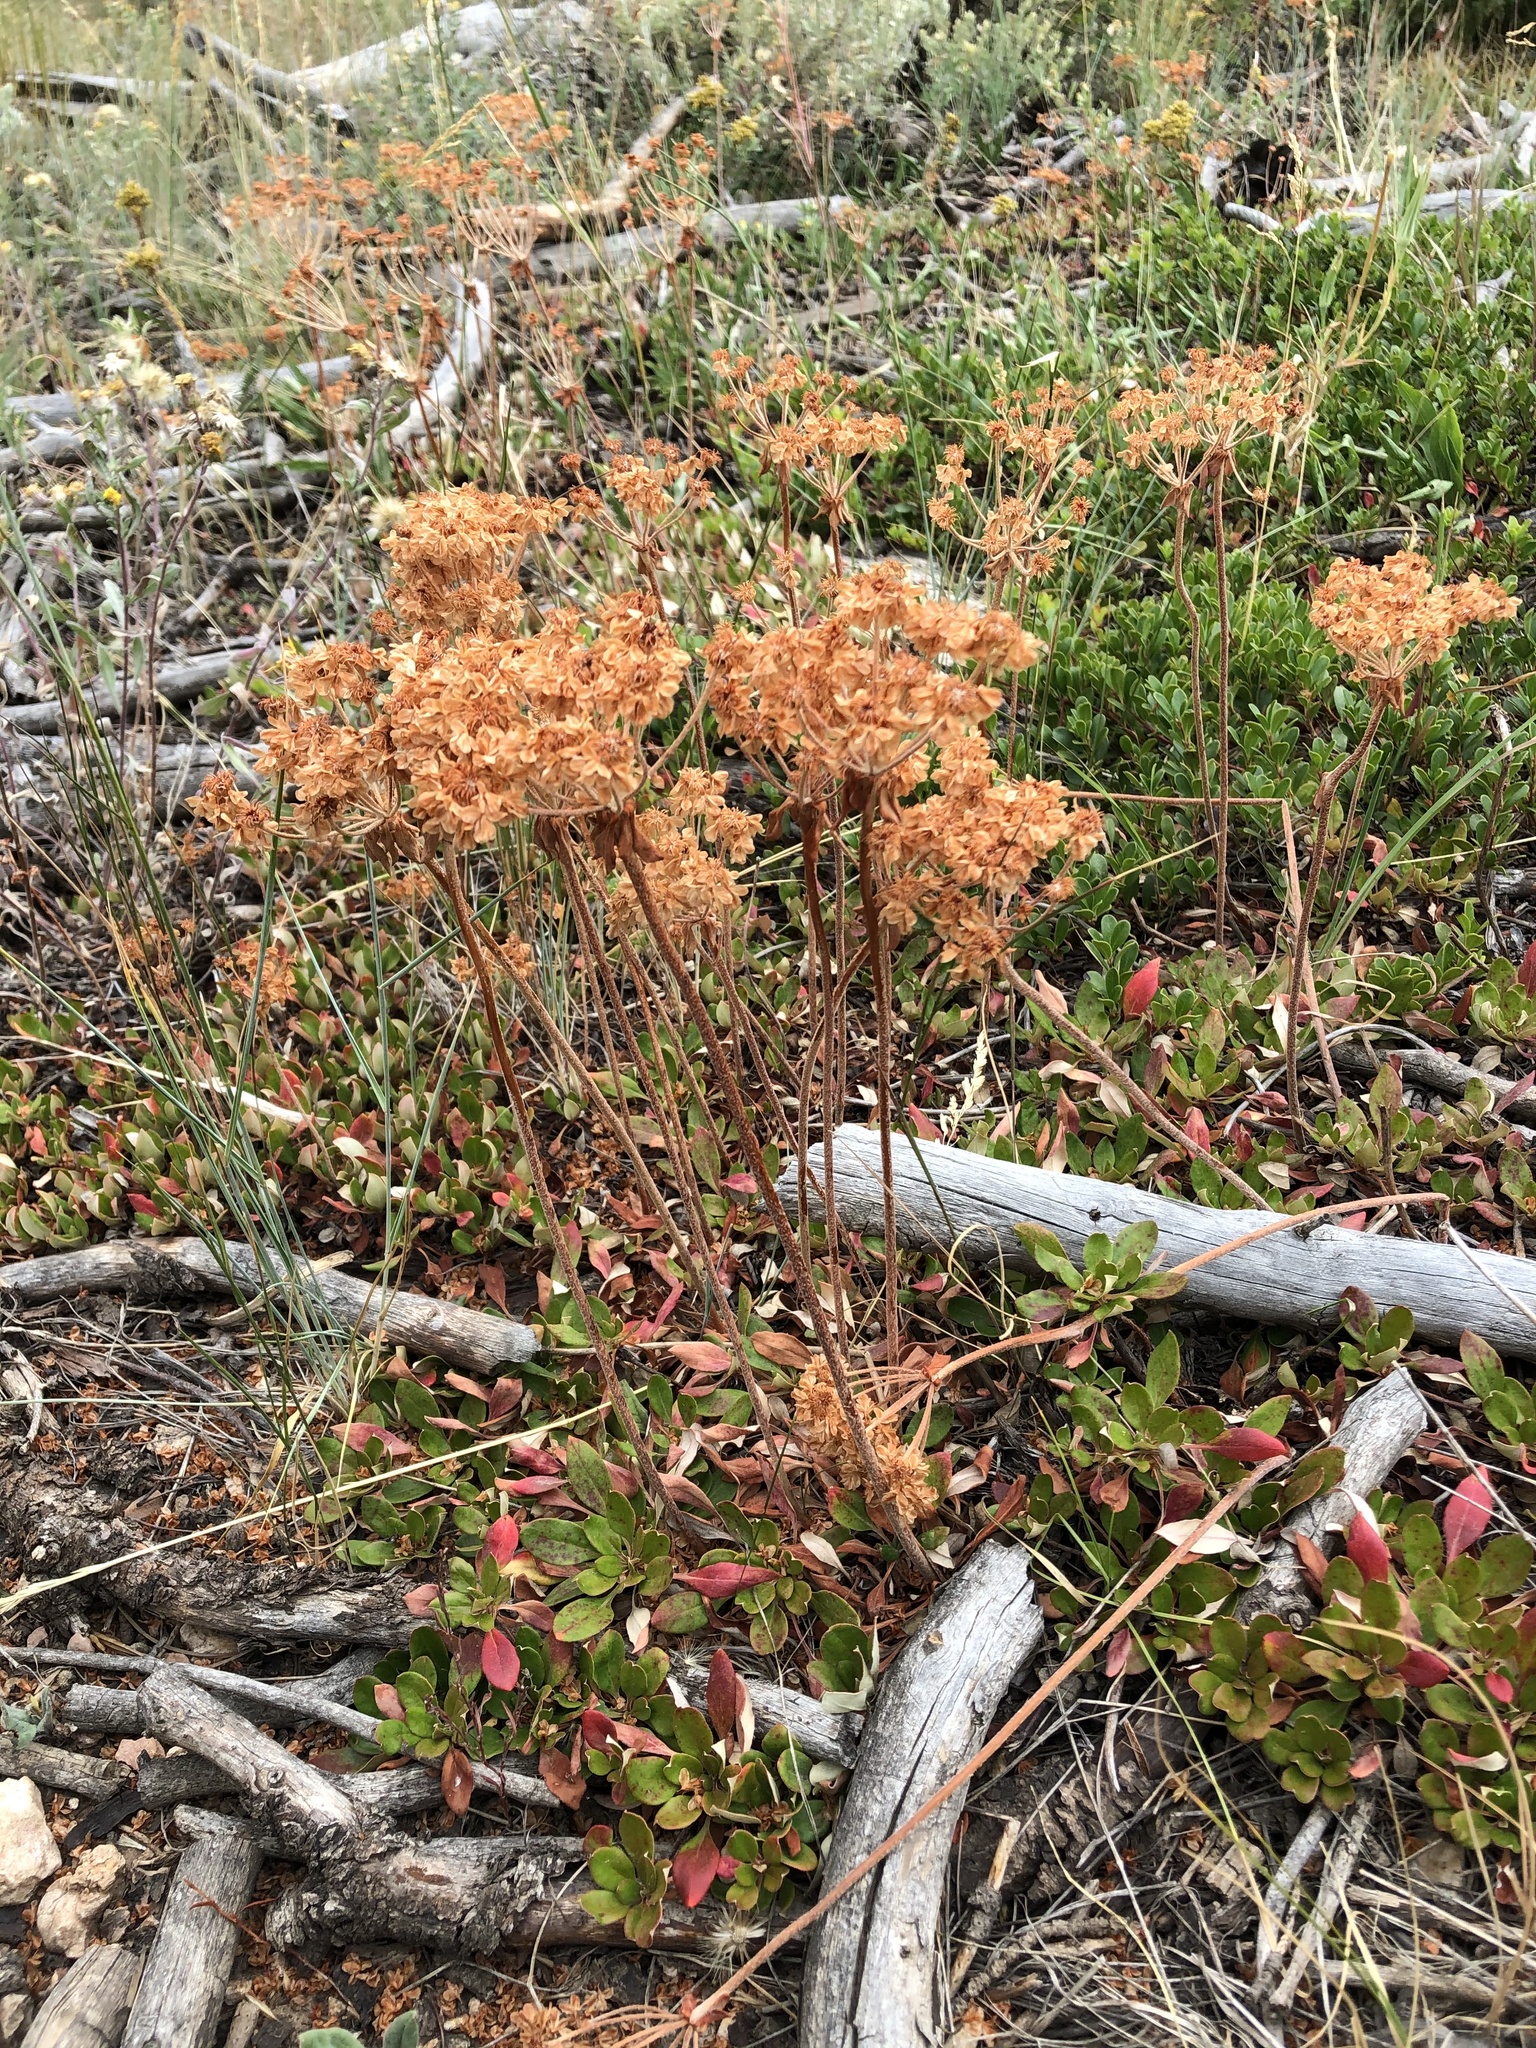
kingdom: Plantae
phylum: Tracheophyta
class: Magnoliopsida
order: Caryophyllales
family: Polygonaceae
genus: Eriogonum
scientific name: Eriogonum umbellatum
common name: Sulfur-buckwheat
